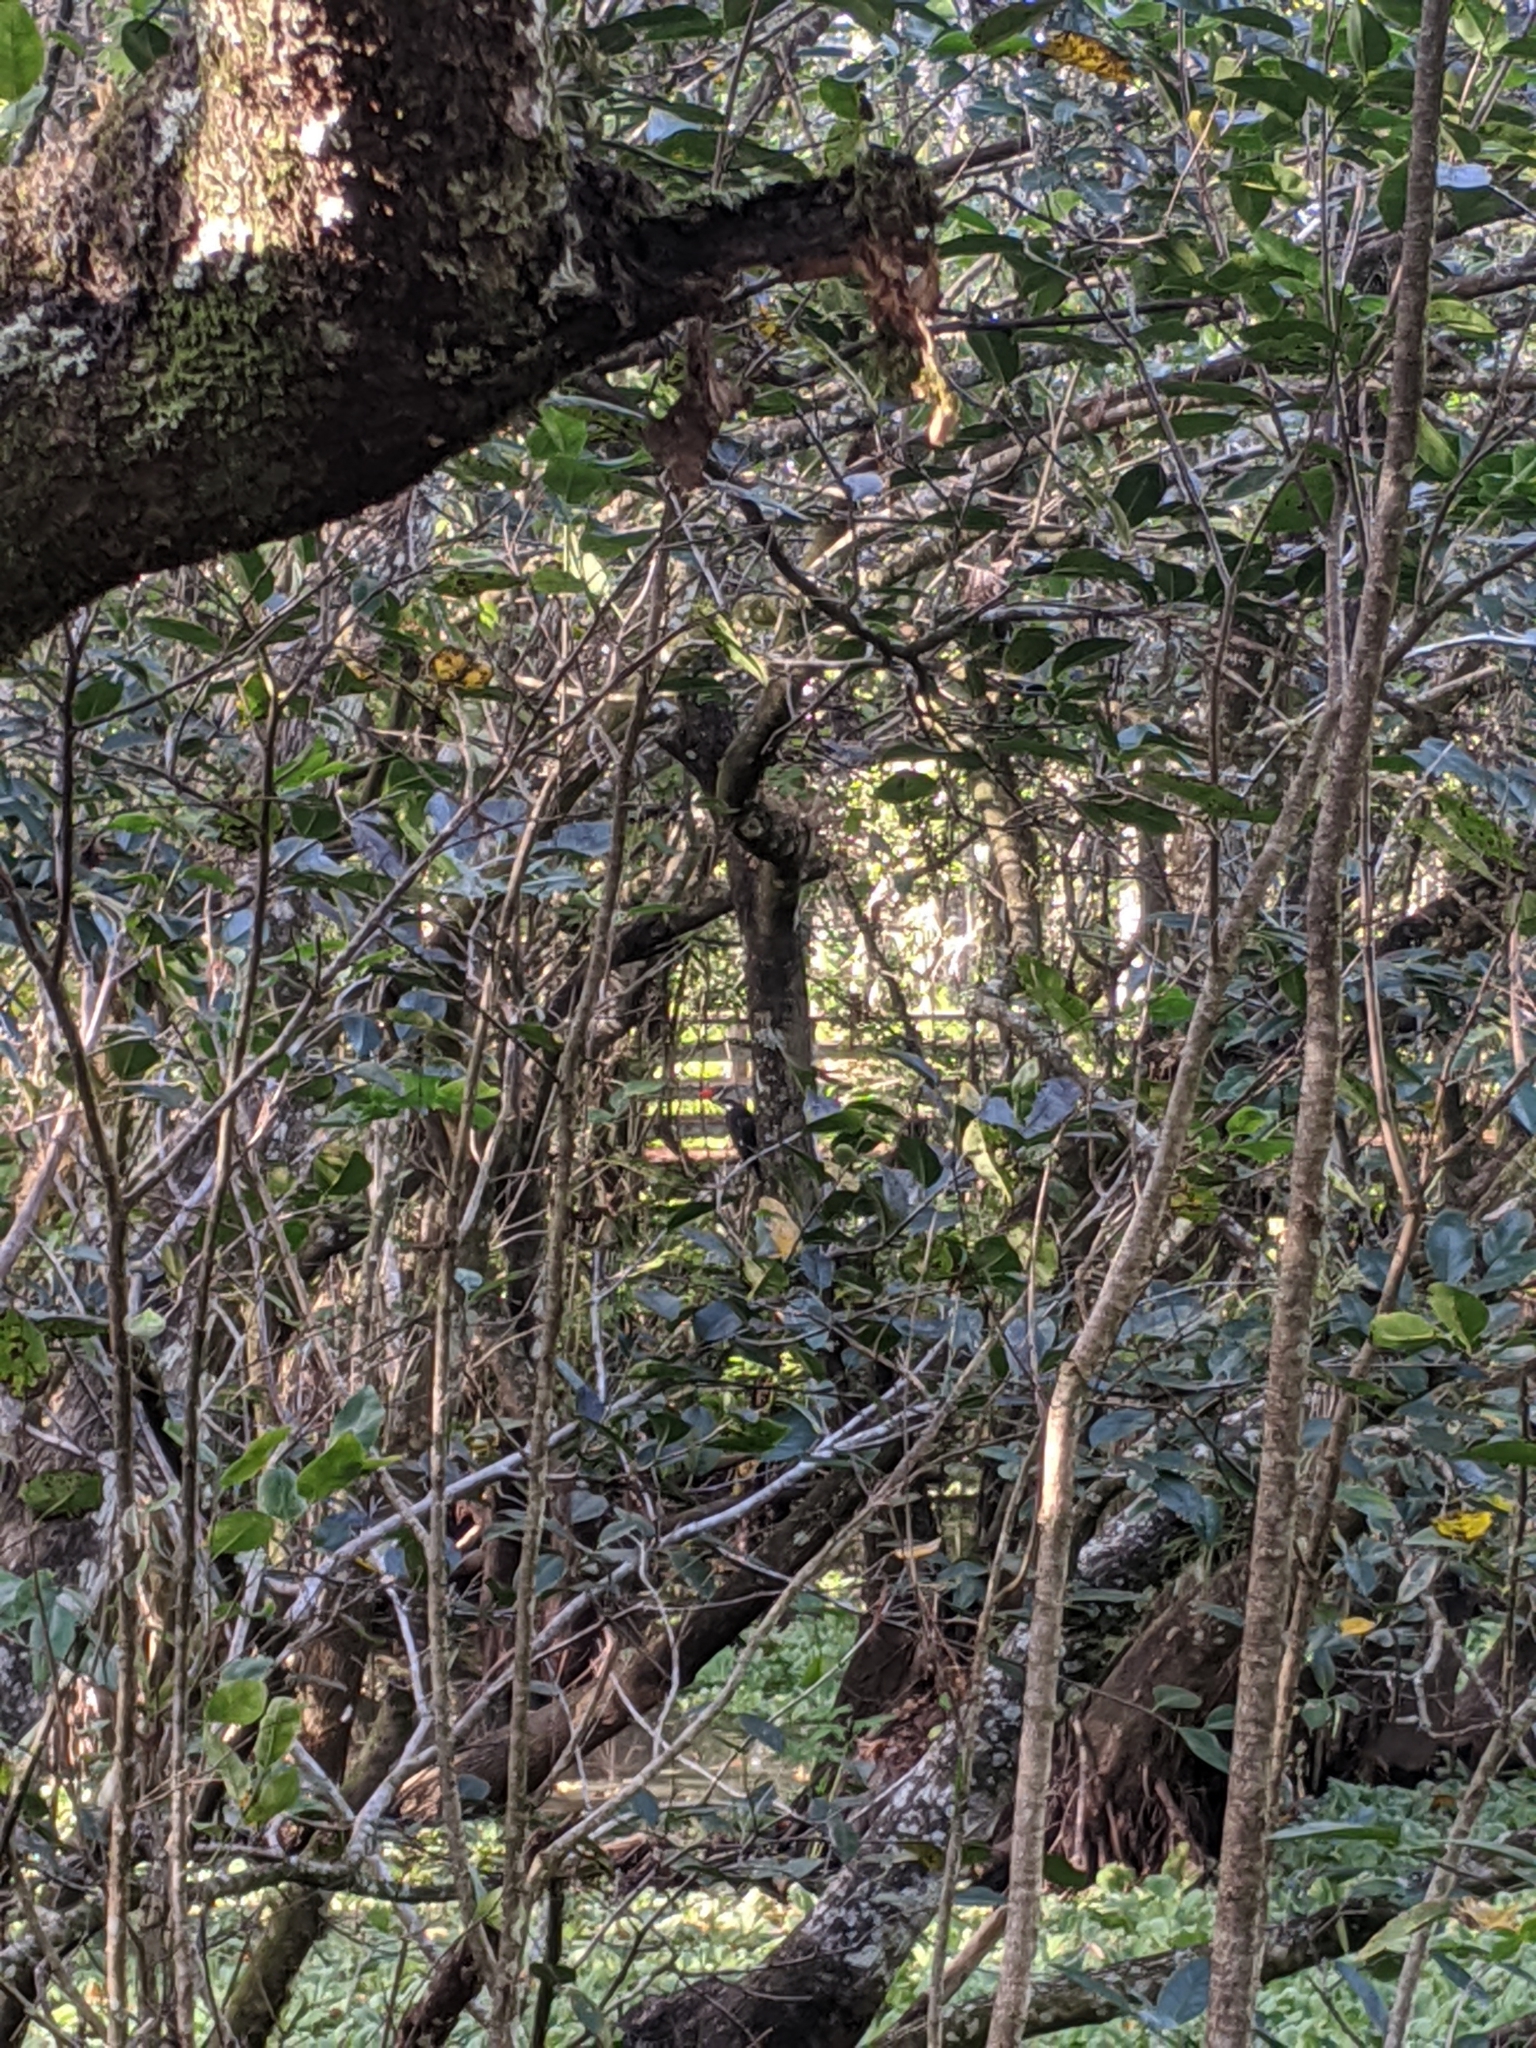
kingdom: Animalia
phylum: Chordata
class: Aves
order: Piciformes
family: Picidae
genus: Dryocopus
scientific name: Dryocopus pileatus
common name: Pileated woodpecker
